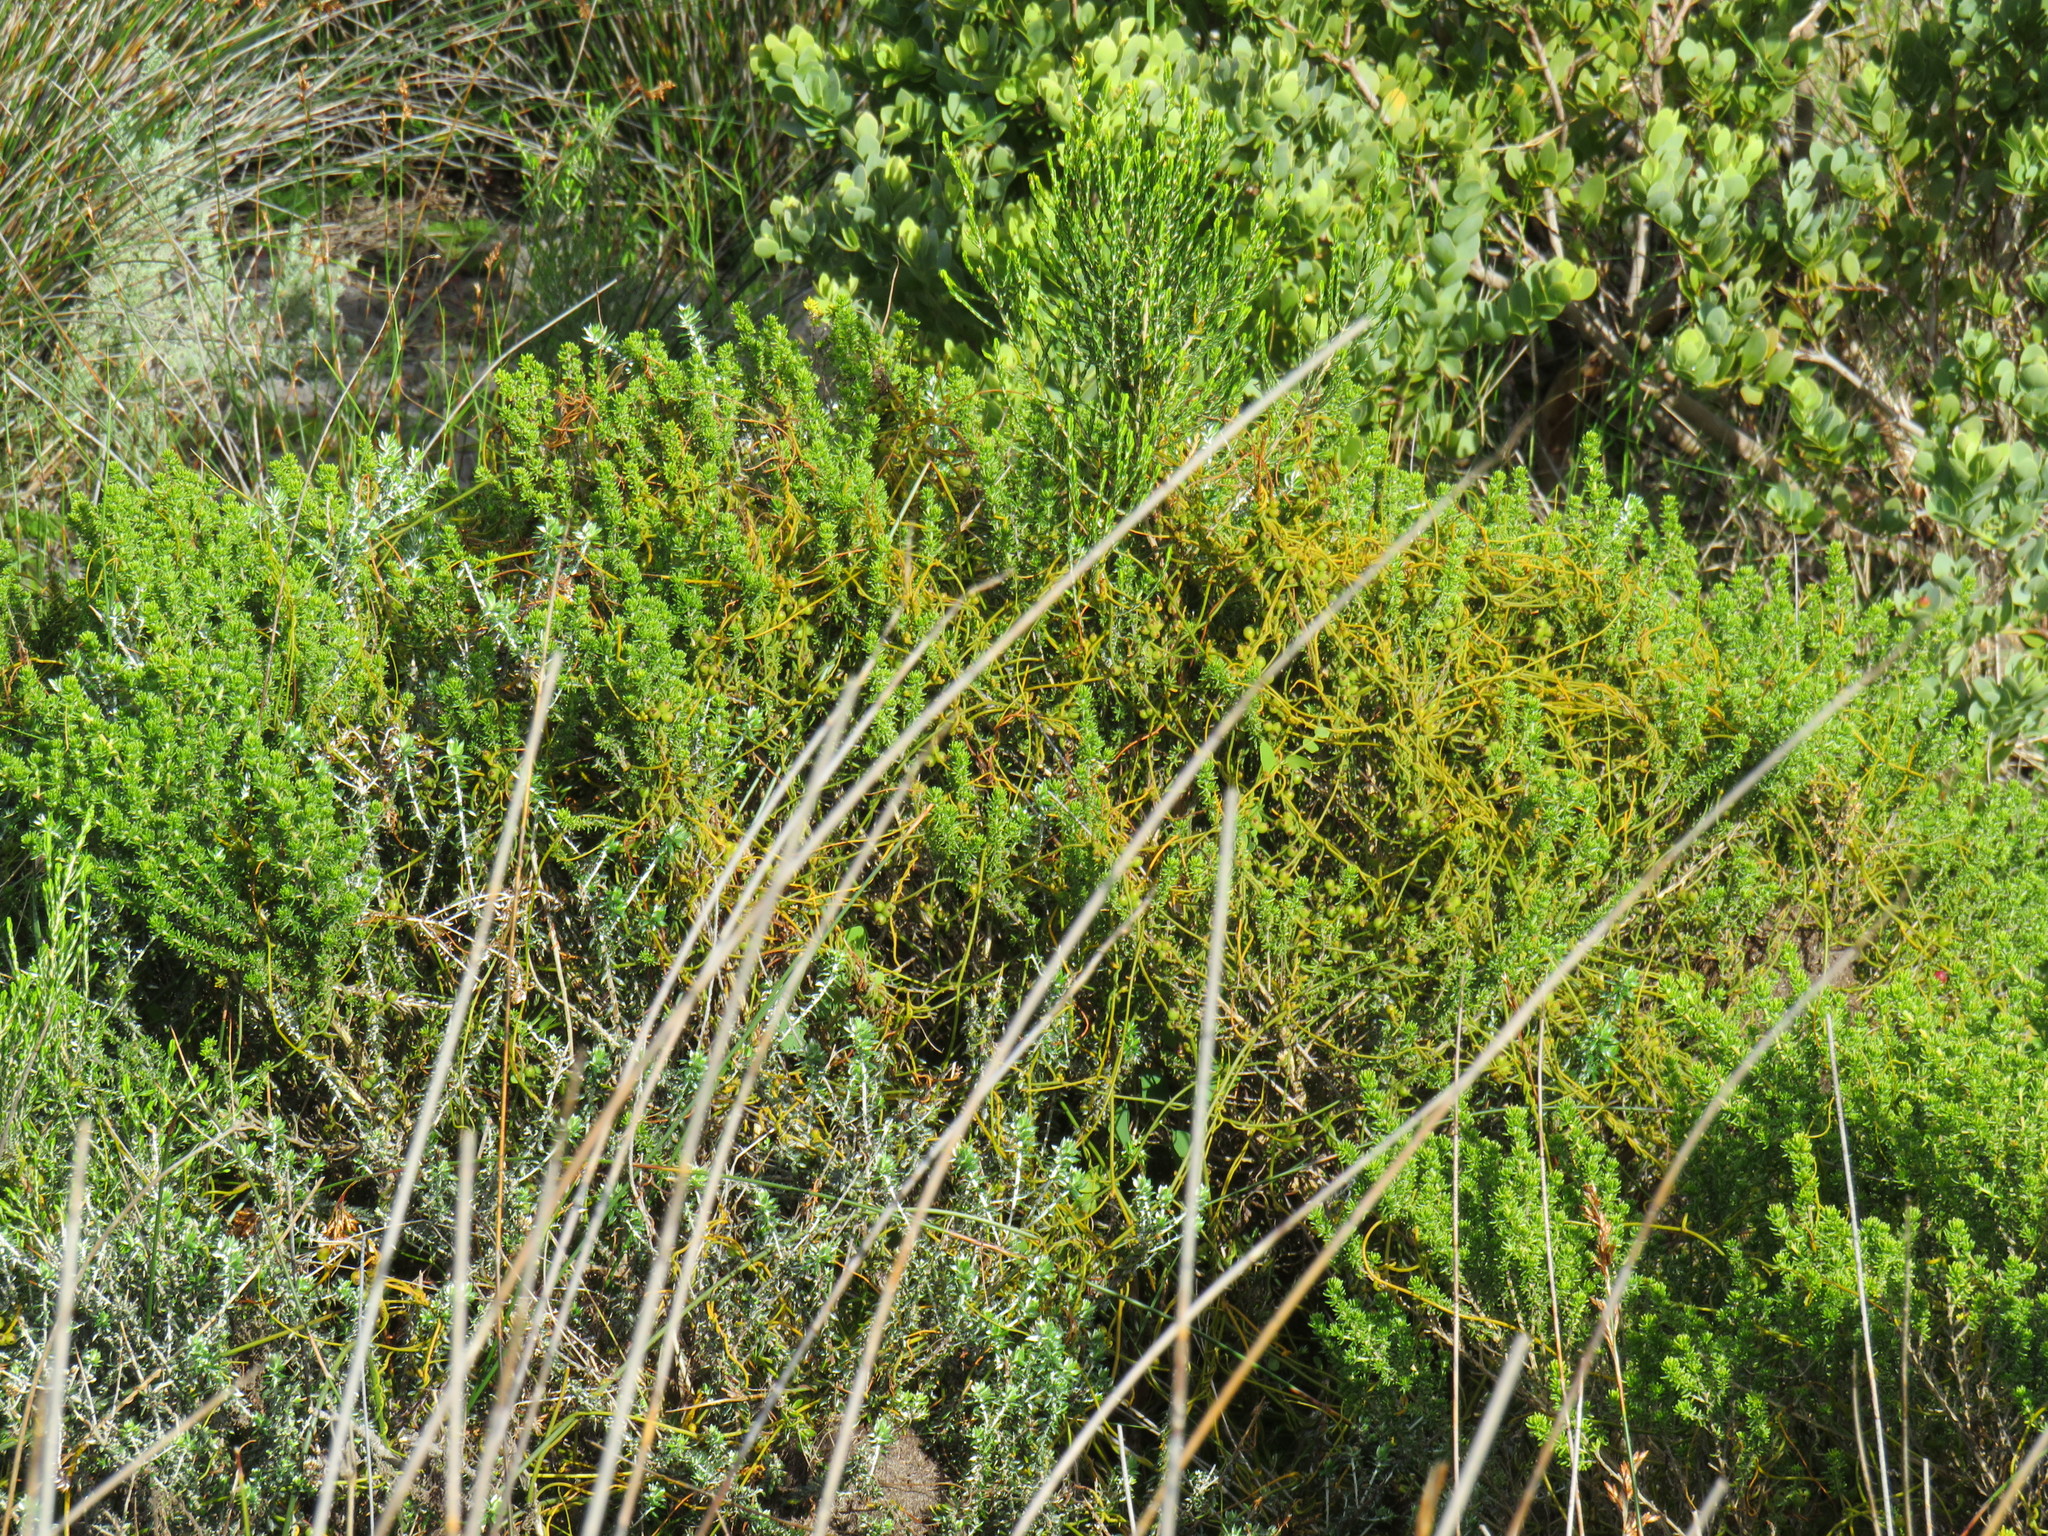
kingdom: Plantae
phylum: Tracheophyta
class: Magnoliopsida
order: Laurales
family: Lauraceae
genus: Cassytha
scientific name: Cassytha ciliolata
